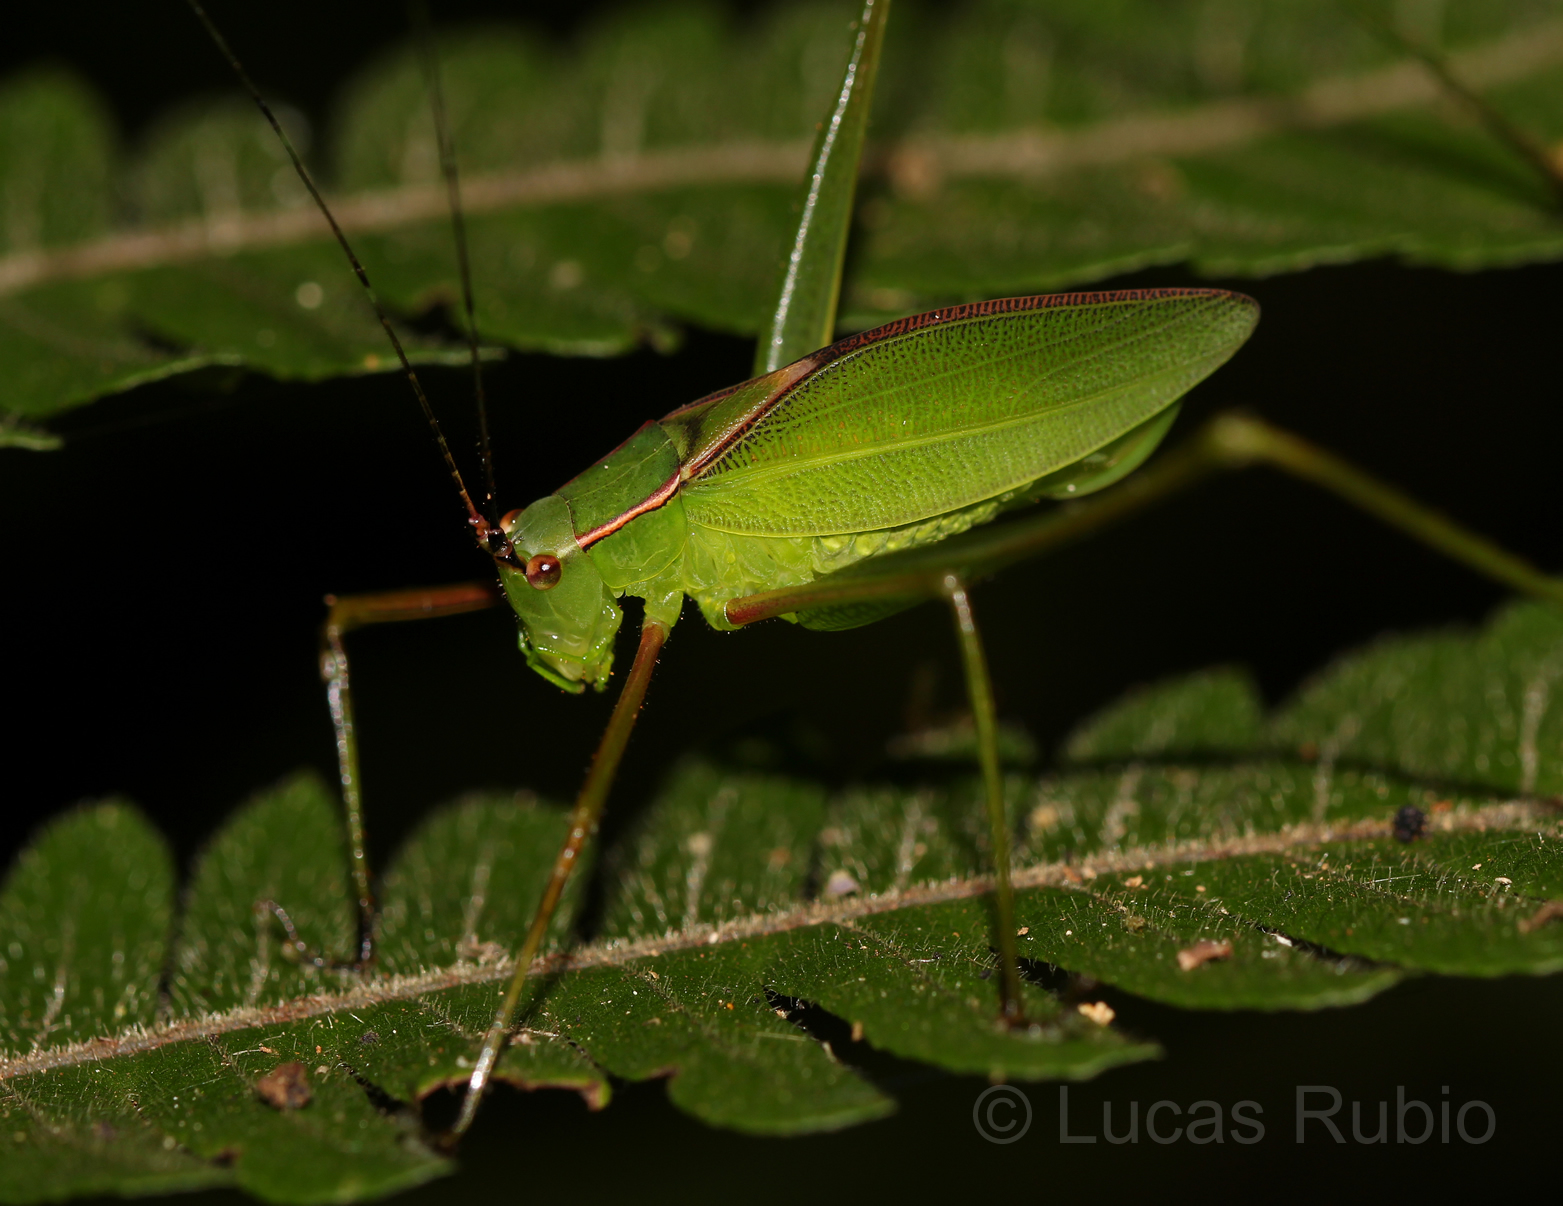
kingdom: Animalia
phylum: Arthropoda
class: Insecta
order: Orthoptera
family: Tettigoniidae
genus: Engonia
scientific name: Engonia minor
